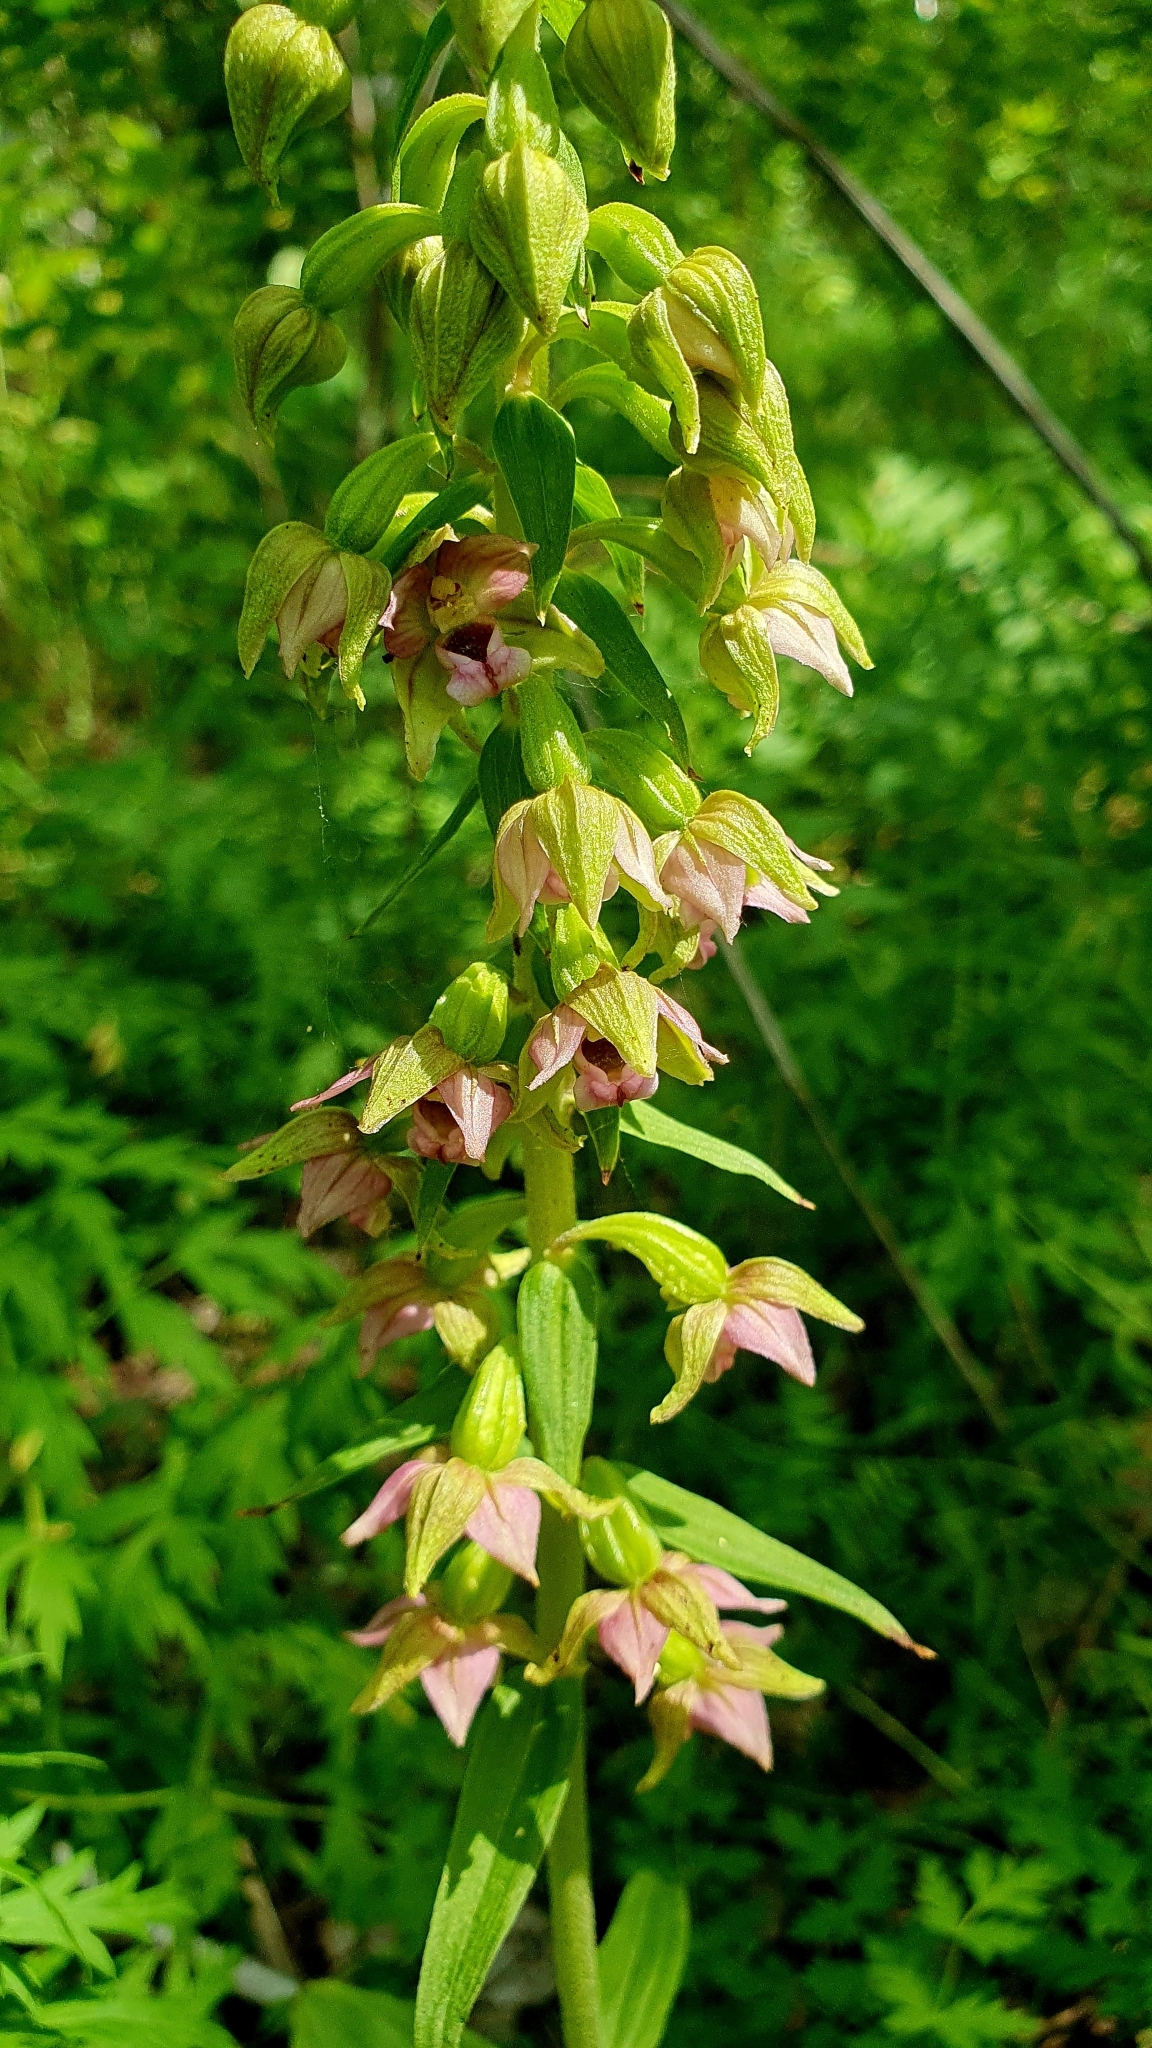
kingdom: Plantae
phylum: Tracheophyta
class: Liliopsida
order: Asparagales
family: Orchidaceae
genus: Epipactis
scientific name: Epipactis helleborine
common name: Broad-leaved helleborine
